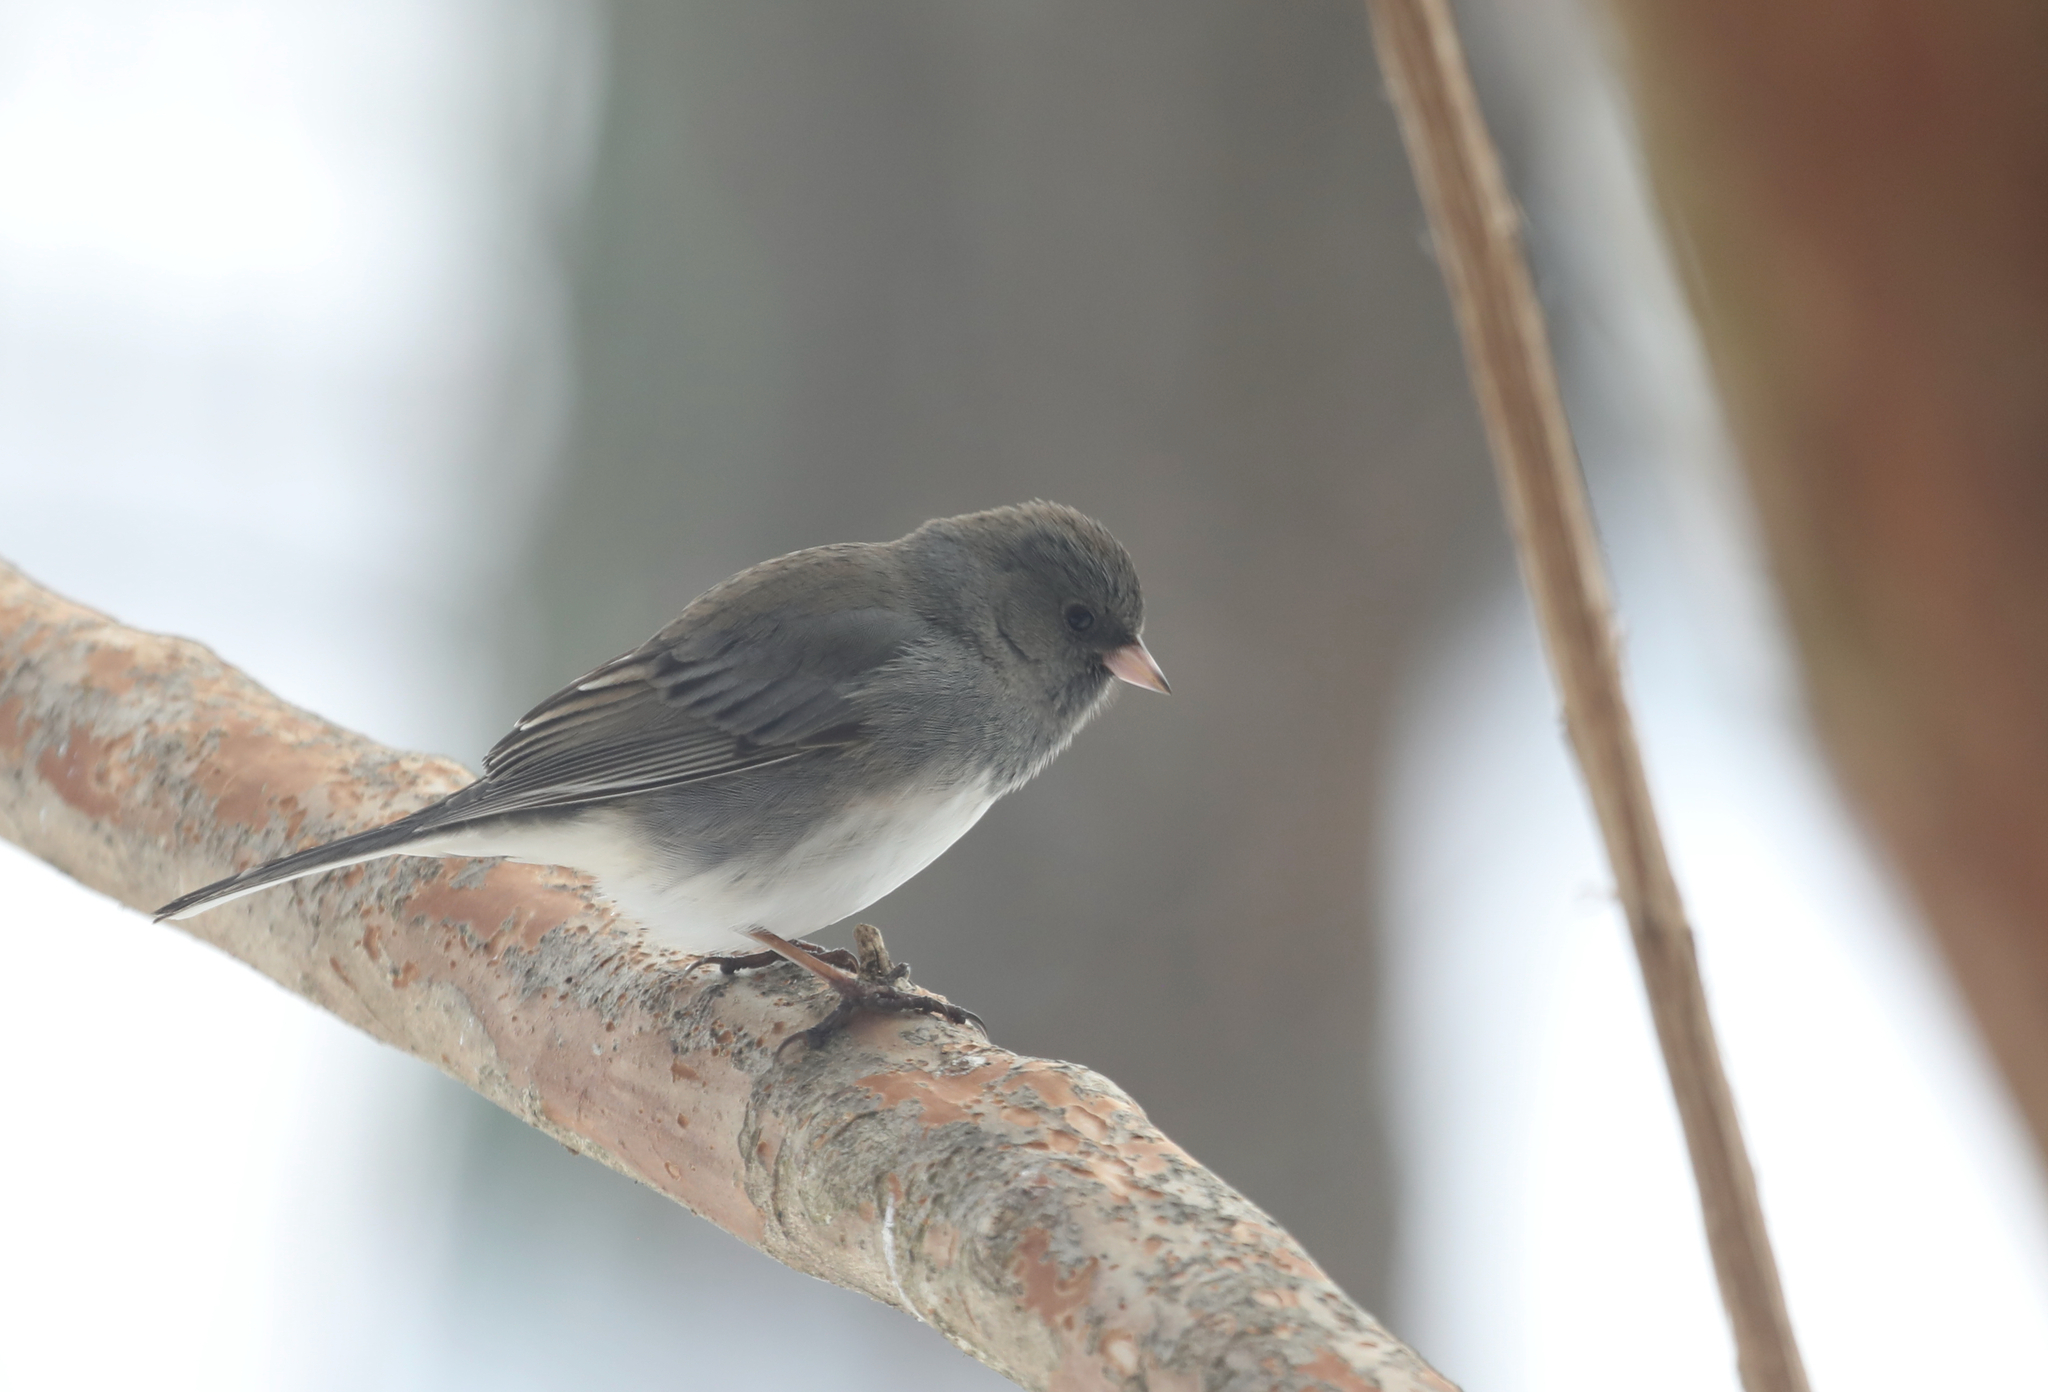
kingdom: Animalia
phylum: Chordata
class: Aves
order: Passeriformes
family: Passerellidae
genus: Junco
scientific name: Junco hyemalis
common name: Dark-eyed junco
